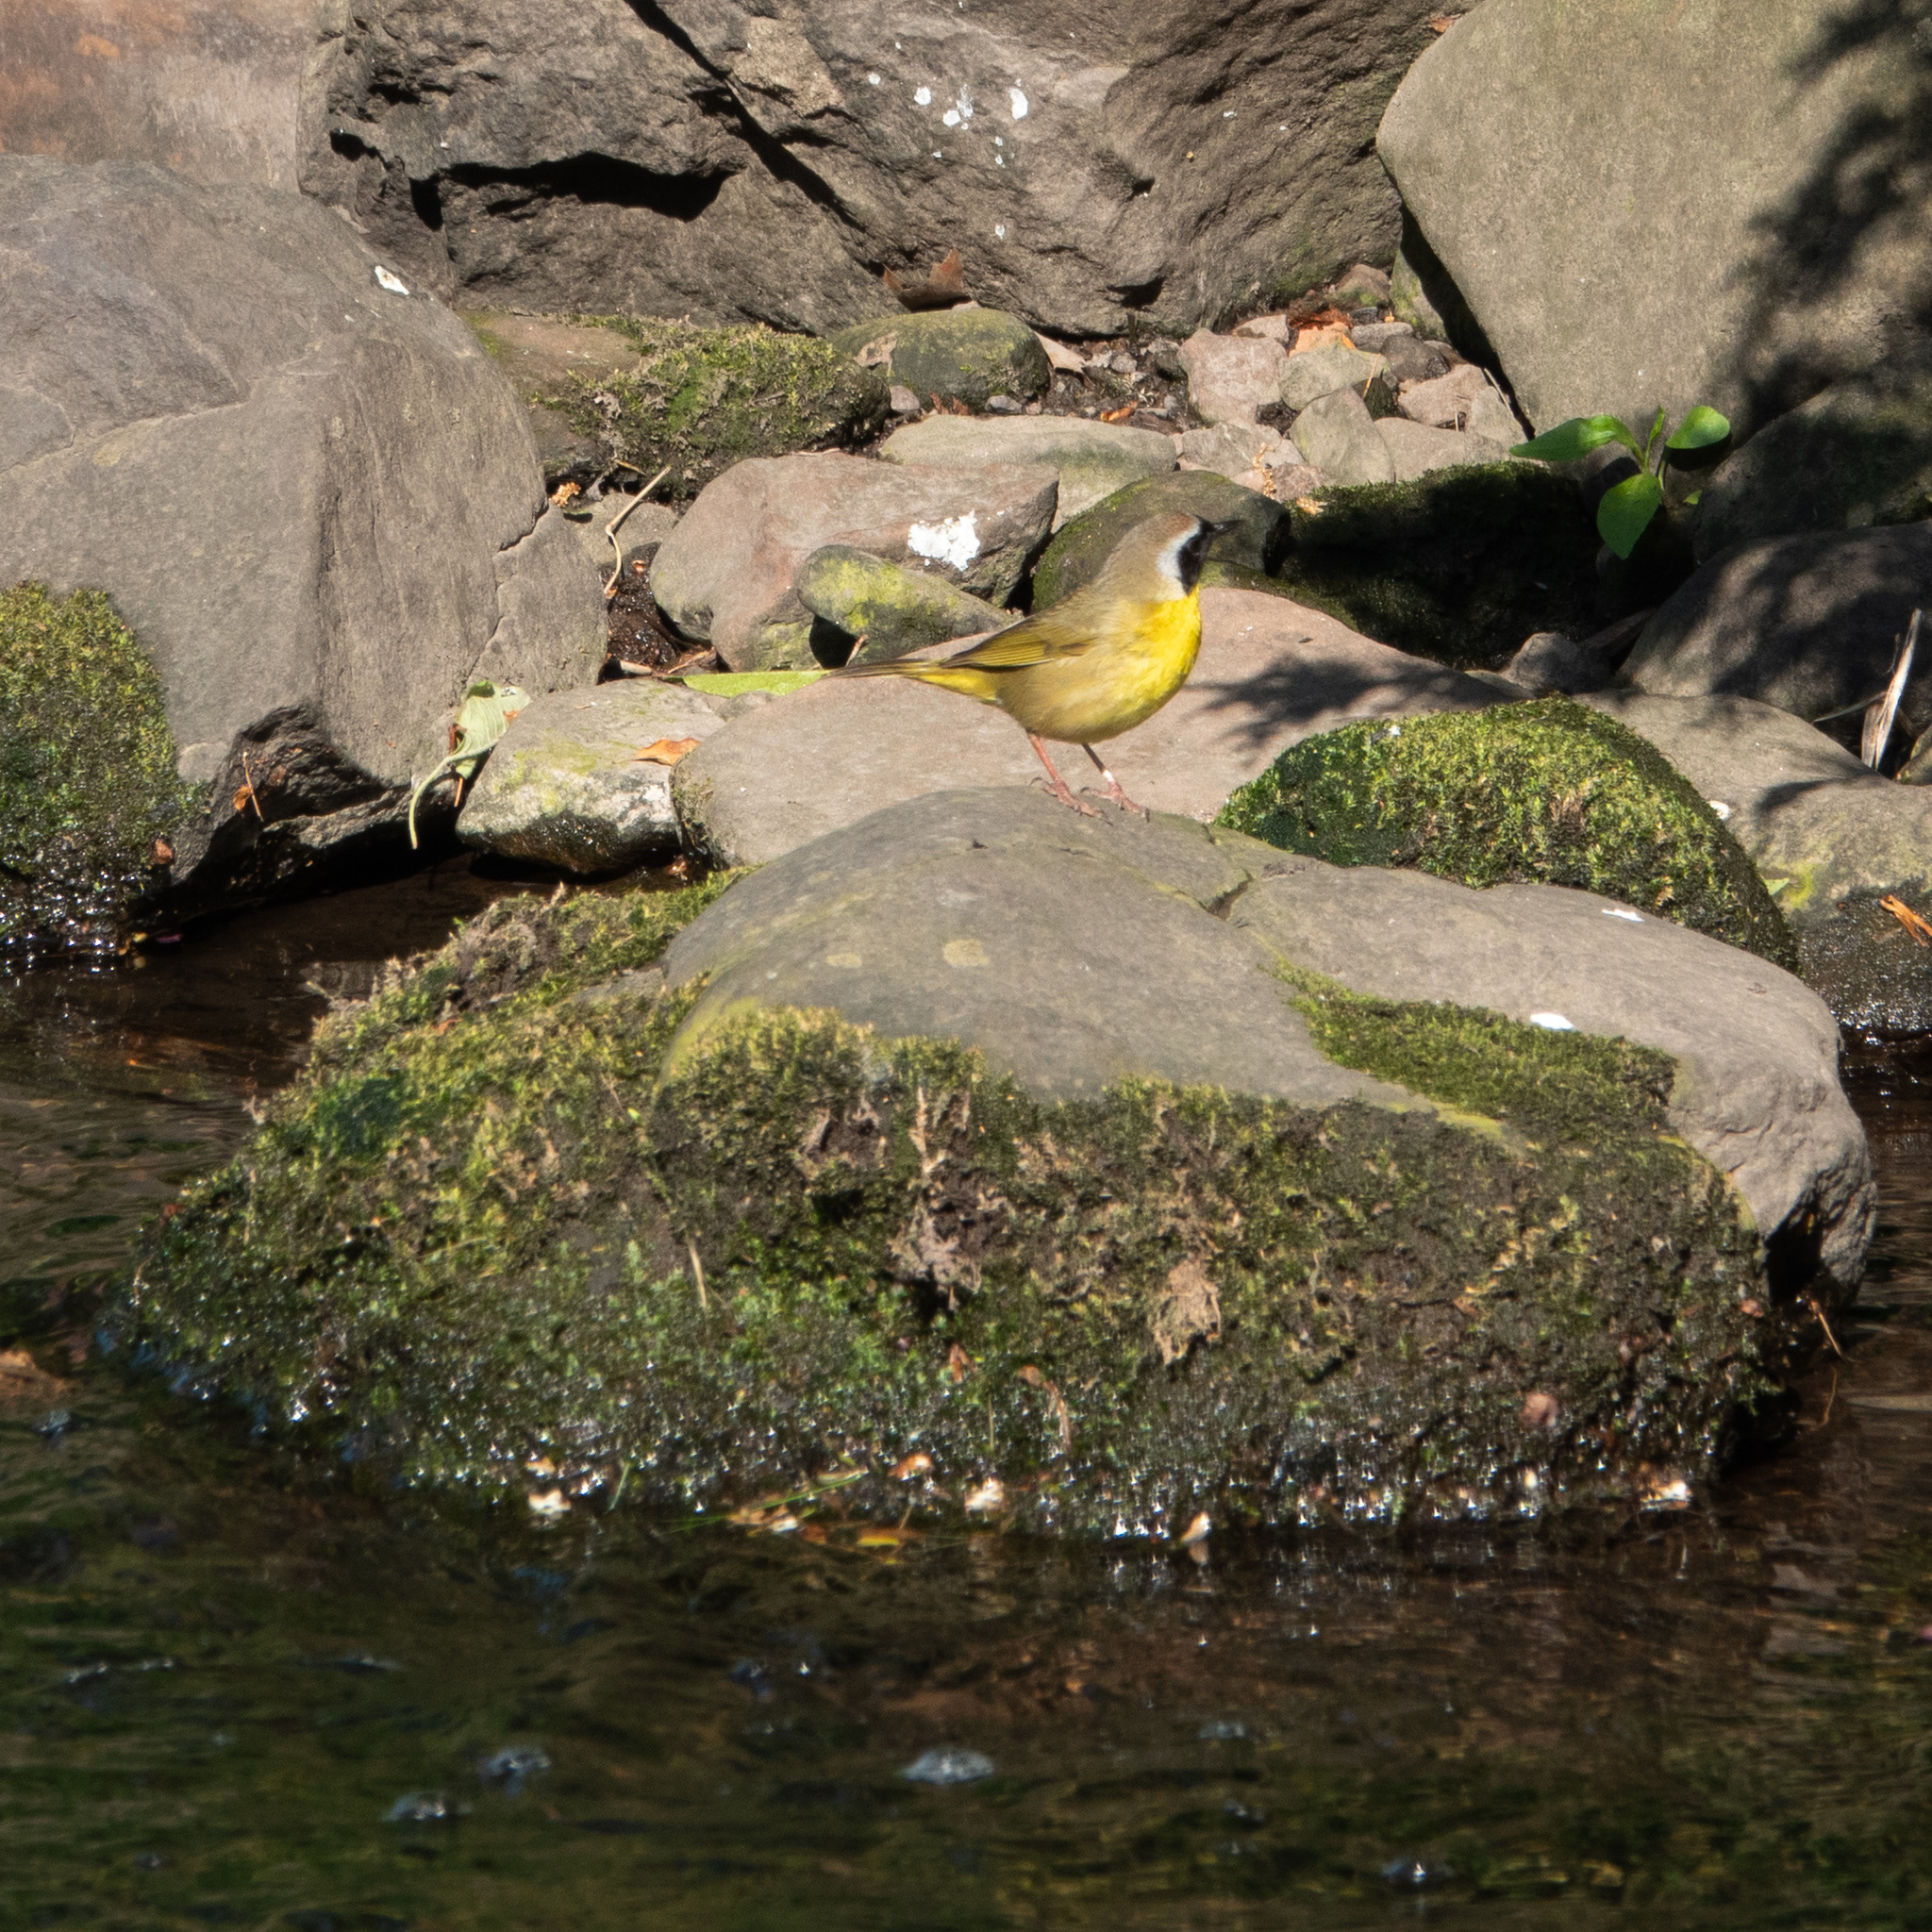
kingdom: Animalia
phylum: Chordata
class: Aves
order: Passeriformes
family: Parulidae
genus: Geothlypis
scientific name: Geothlypis trichas
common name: Common yellowthroat
